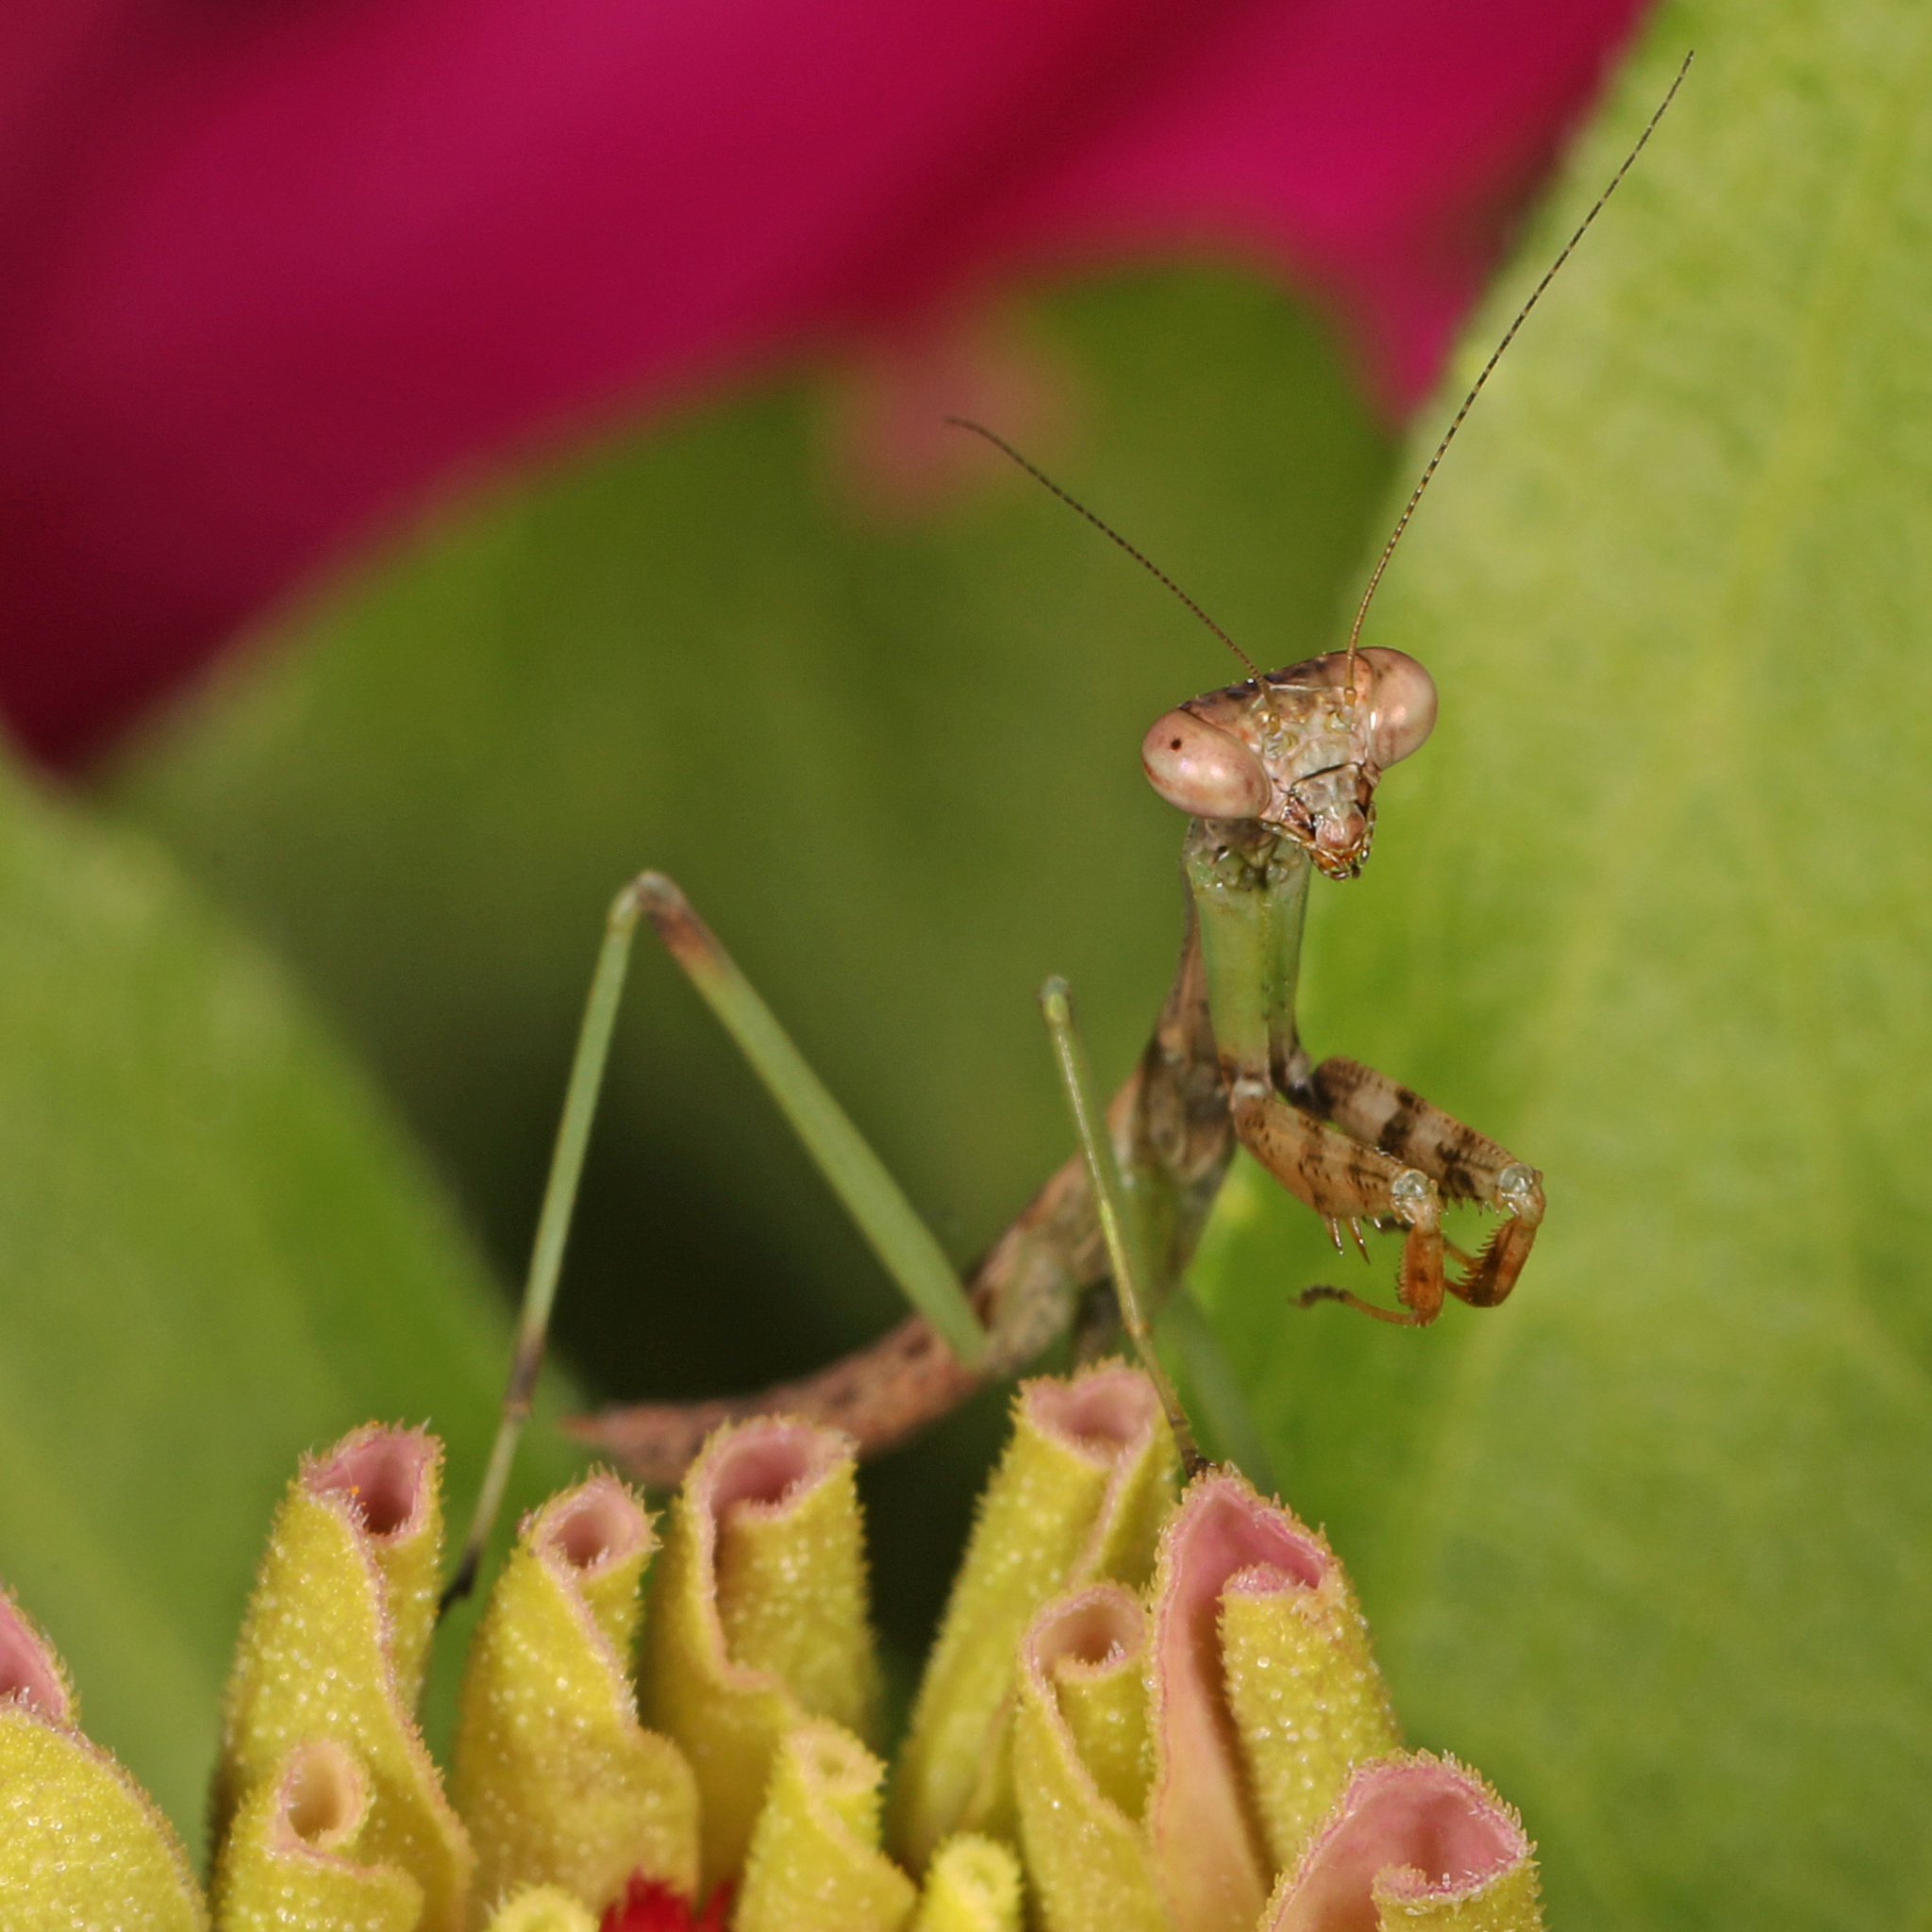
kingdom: Animalia
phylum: Arthropoda
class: Insecta
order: Mantodea
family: Mantidae
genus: Stagmomantis
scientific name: Stagmomantis carolina
